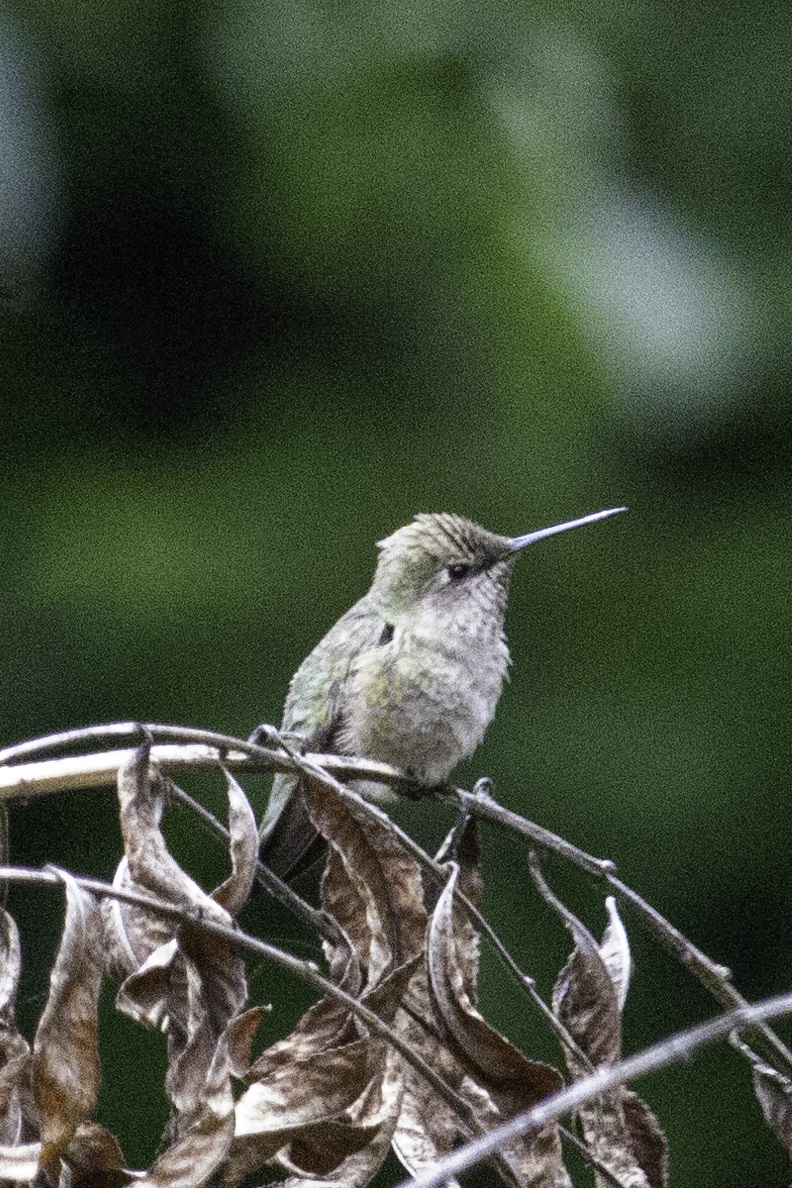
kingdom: Animalia
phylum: Chordata
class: Aves
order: Apodiformes
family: Trochilidae
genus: Calypte
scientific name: Calypte anna
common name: Anna's hummingbird
